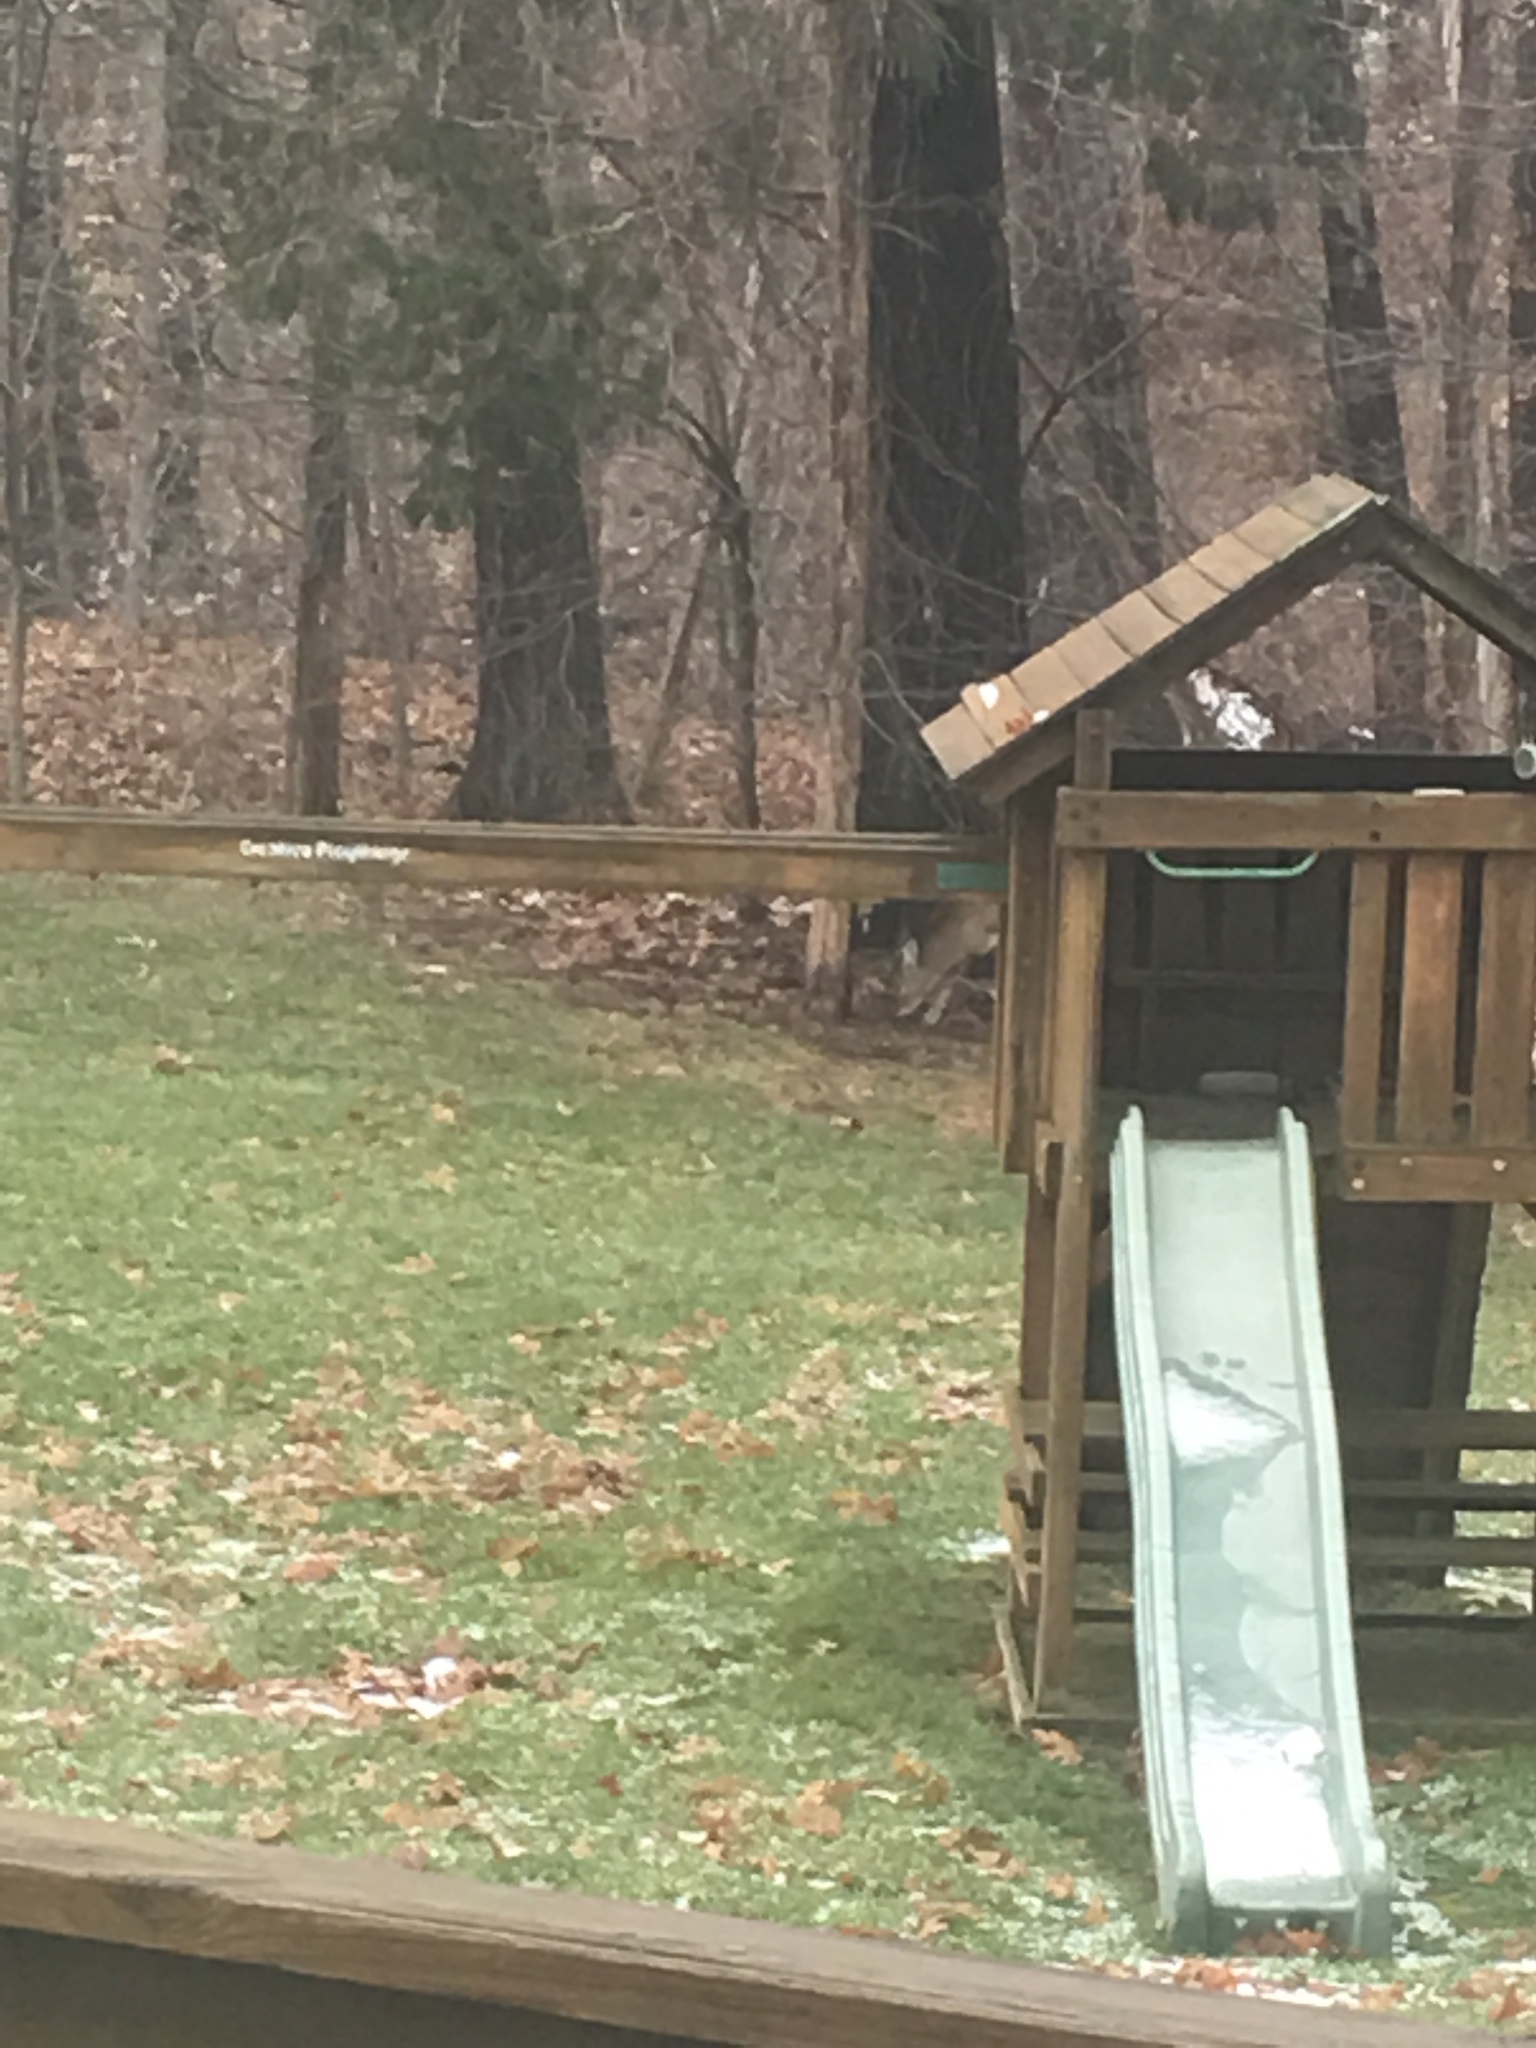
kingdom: Animalia
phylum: Chordata
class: Mammalia
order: Artiodactyla
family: Cervidae
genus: Odocoileus
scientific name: Odocoileus virginianus
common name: White-tailed deer
